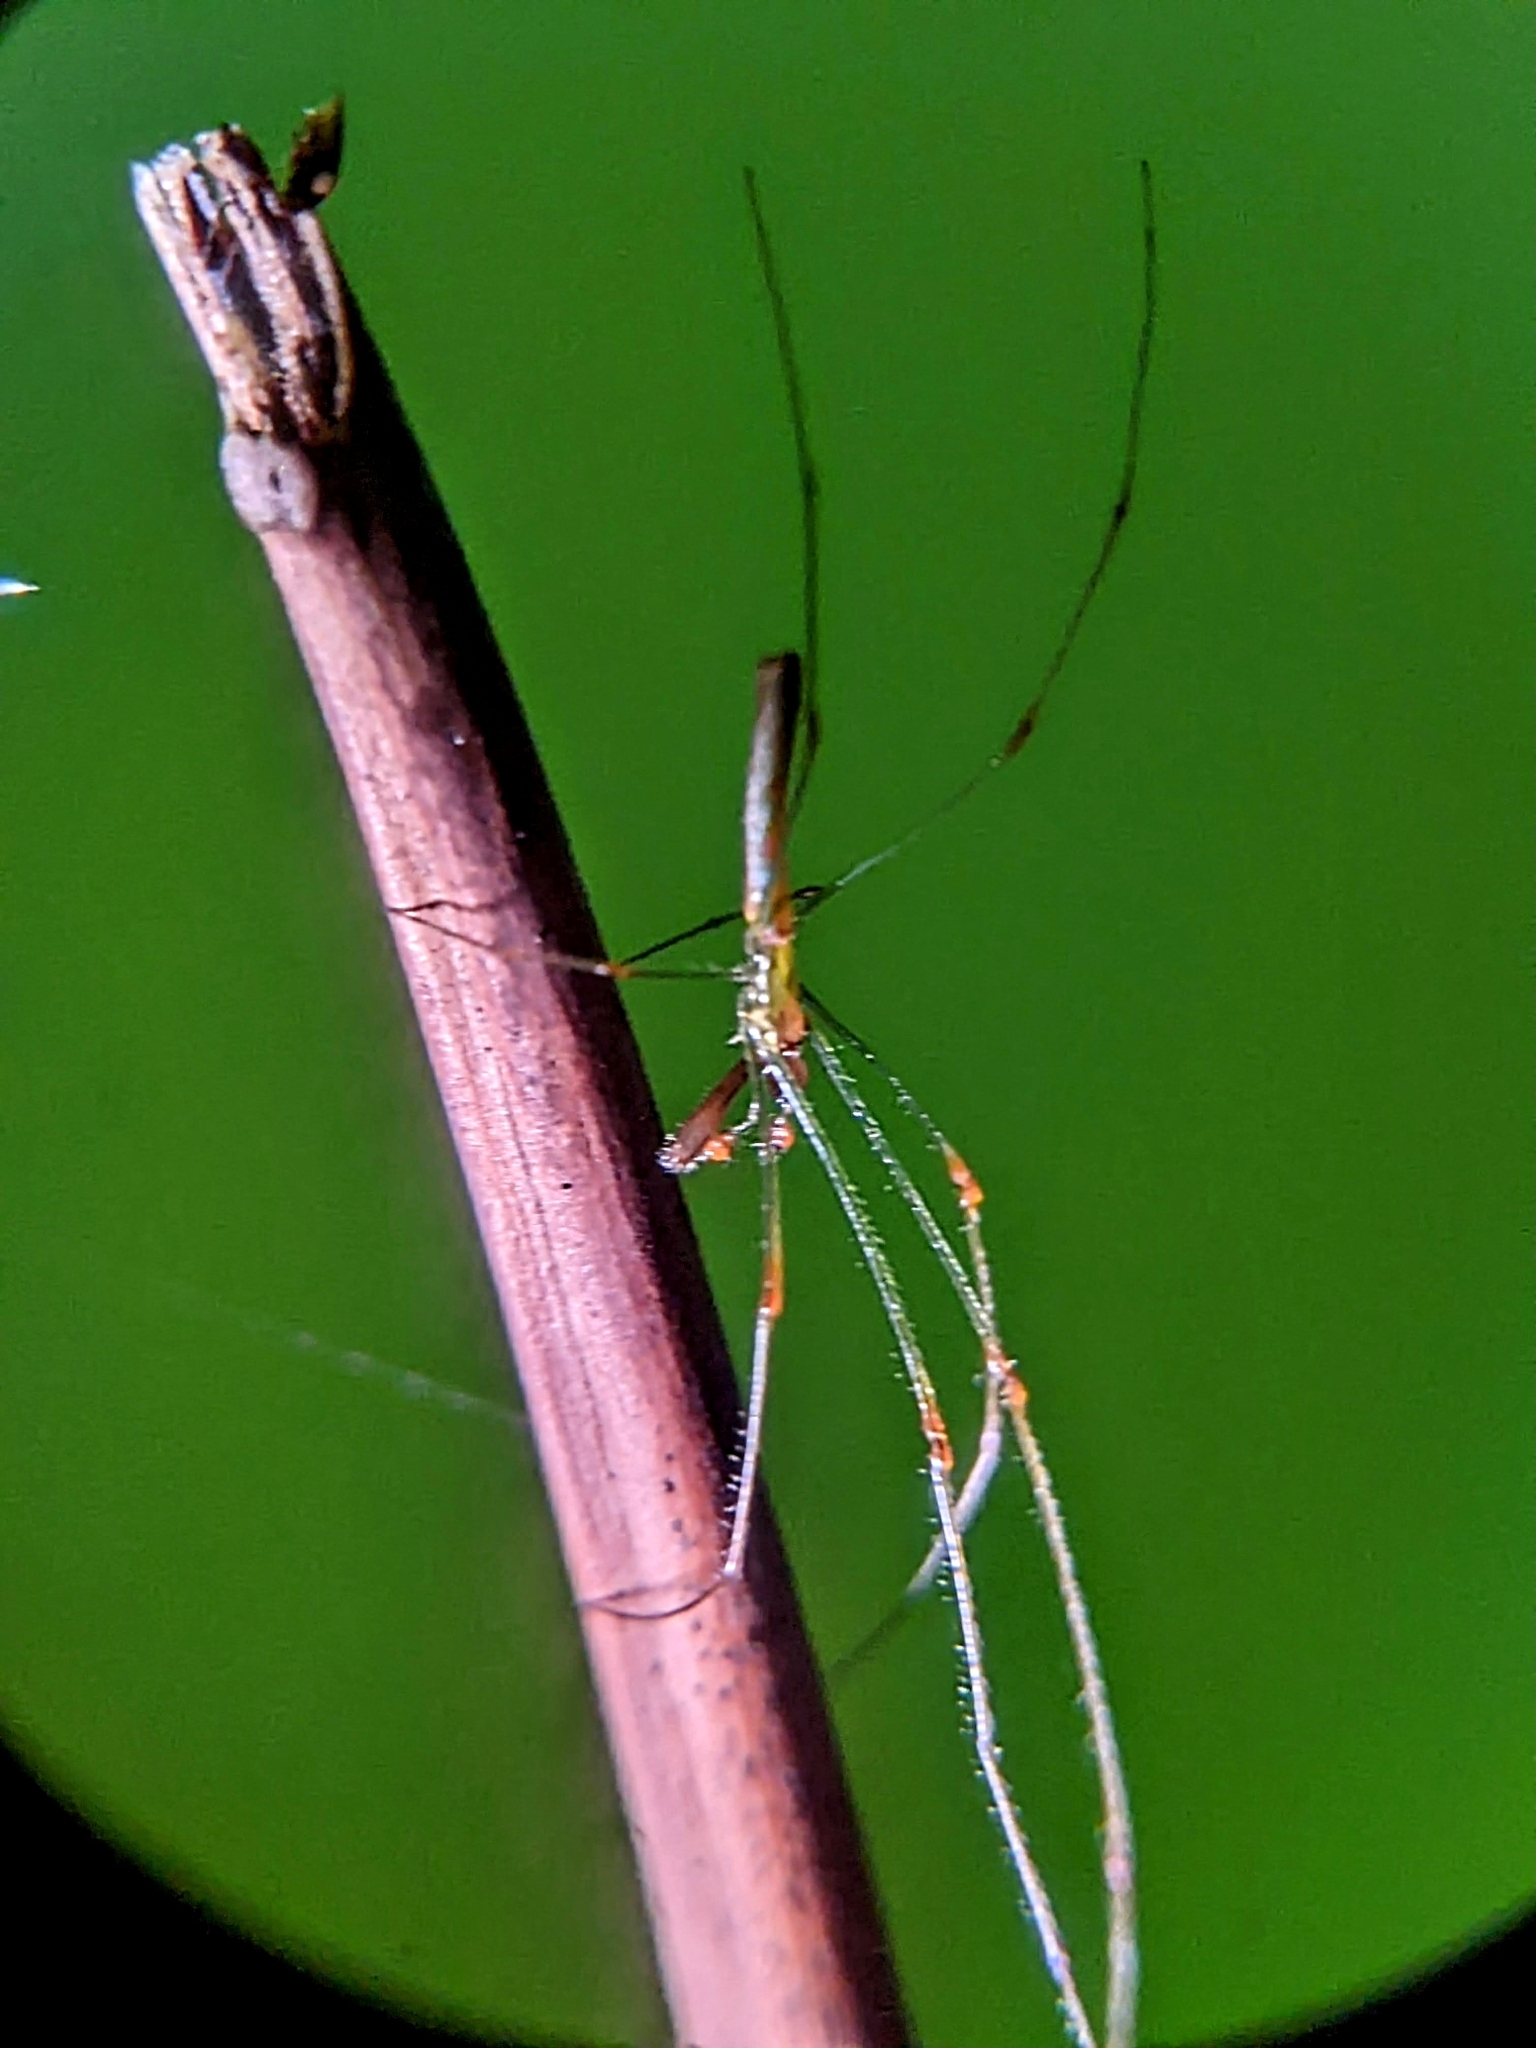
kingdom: Animalia
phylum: Arthropoda
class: Arachnida
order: Araneae
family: Tetragnathidae
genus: Tetragnatha
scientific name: Tetragnatha hasselti
